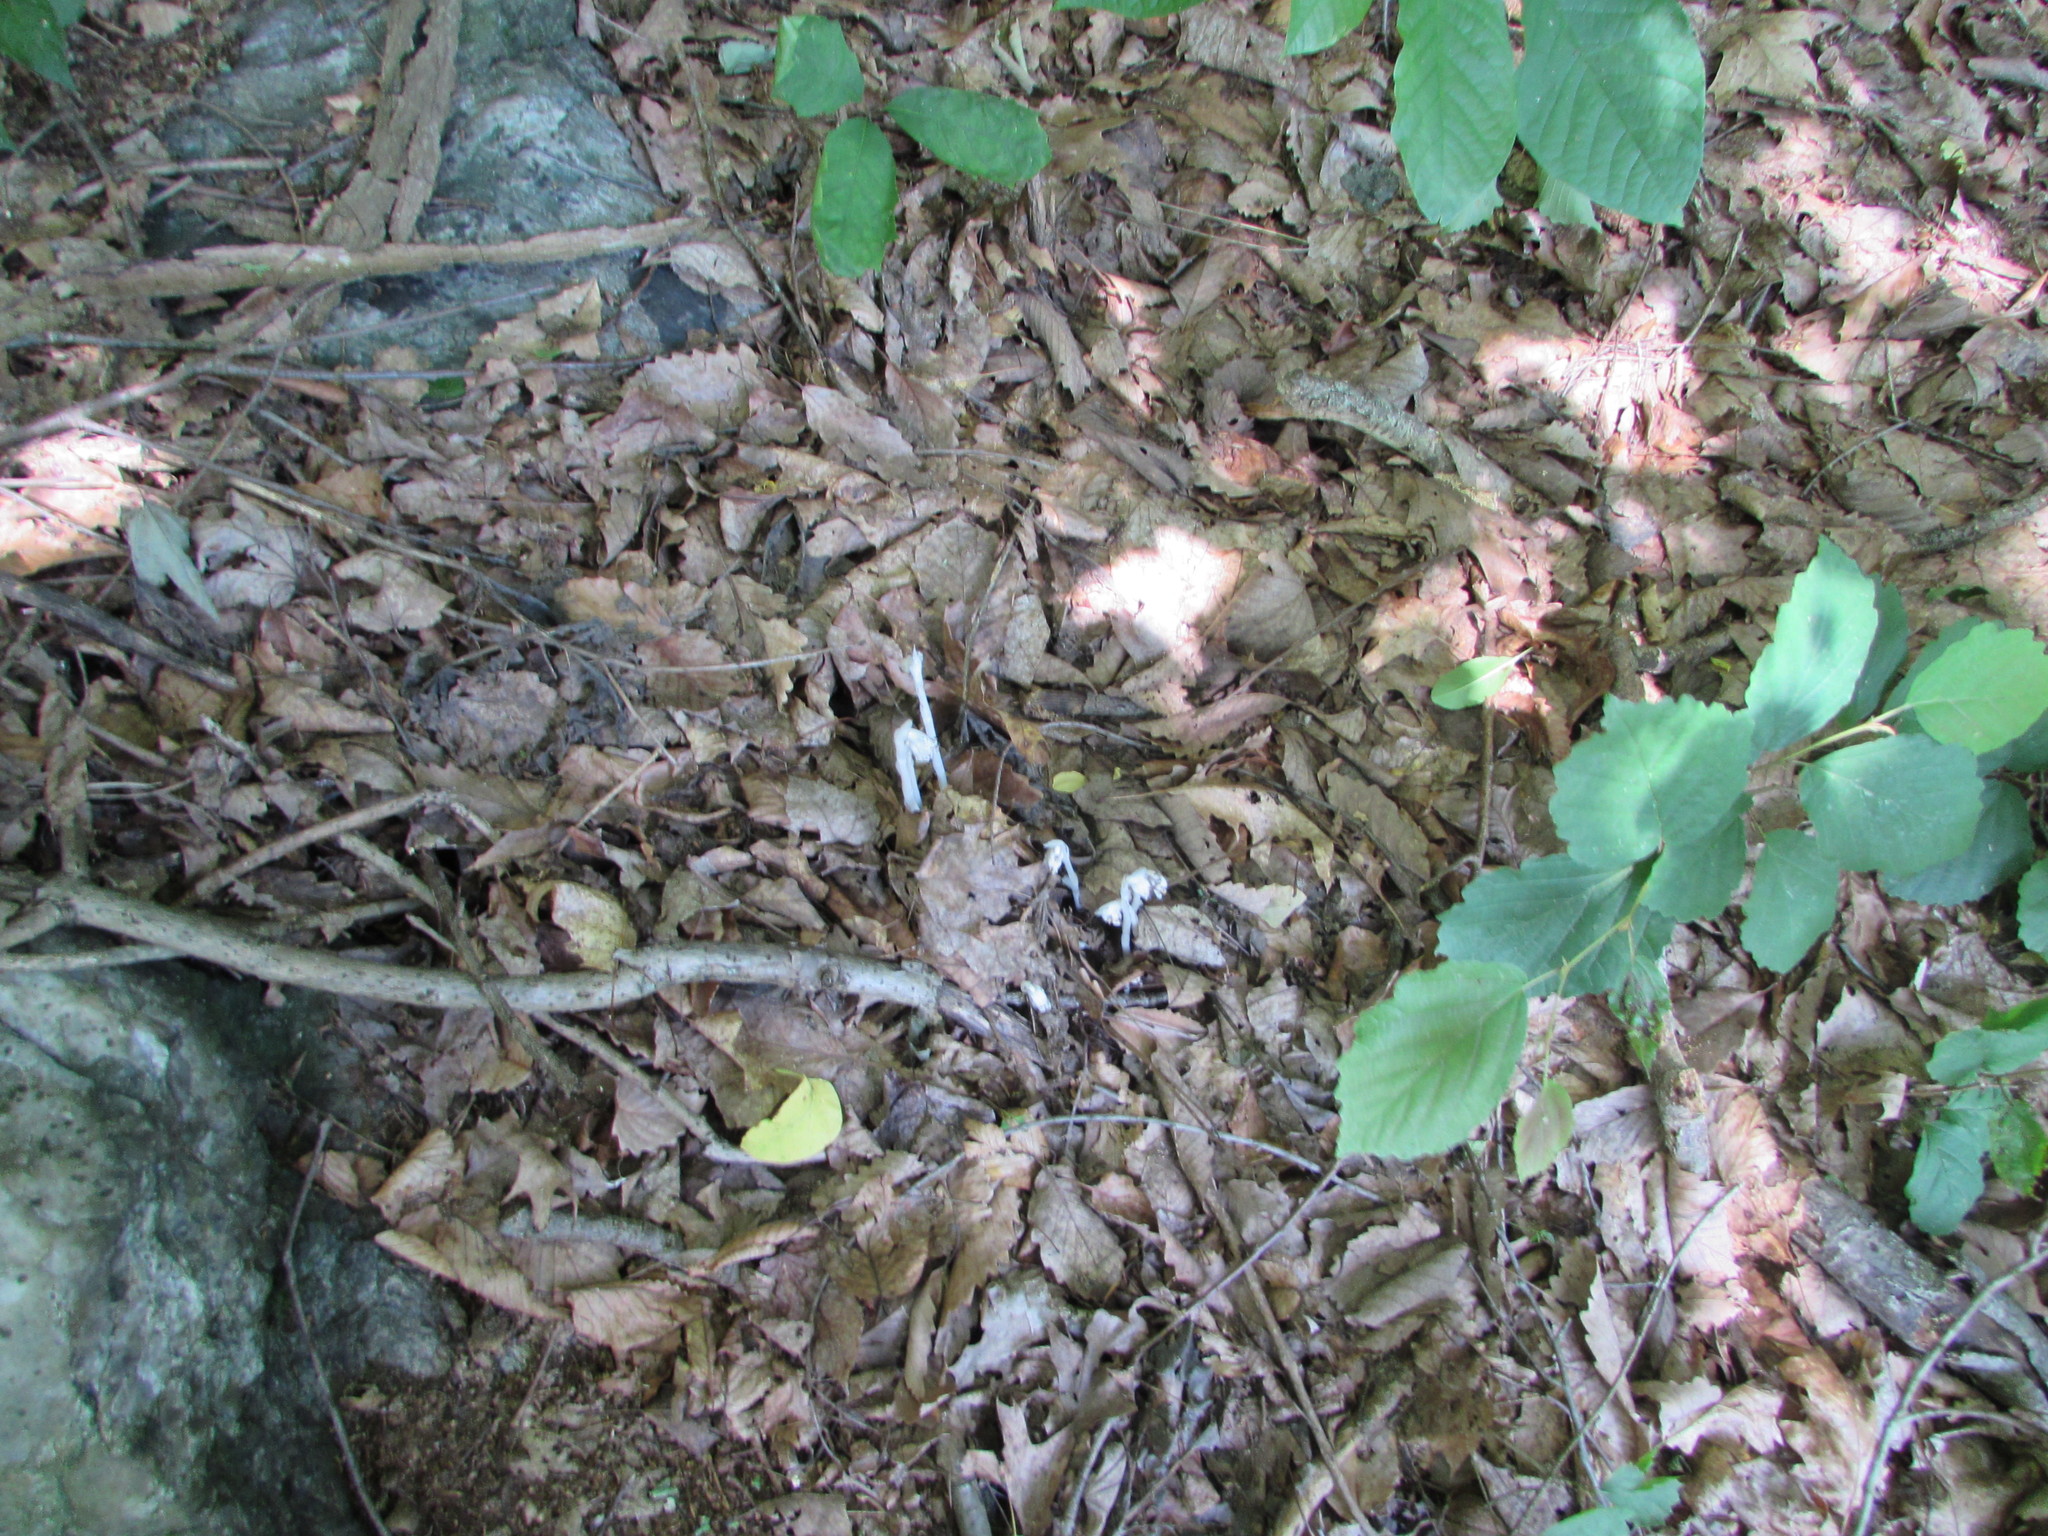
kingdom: Plantae
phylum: Tracheophyta
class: Magnoliopsida
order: Ericales
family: Ericaceae
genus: Monotropa
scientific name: Monotropa uniflora
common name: Convulsion root
